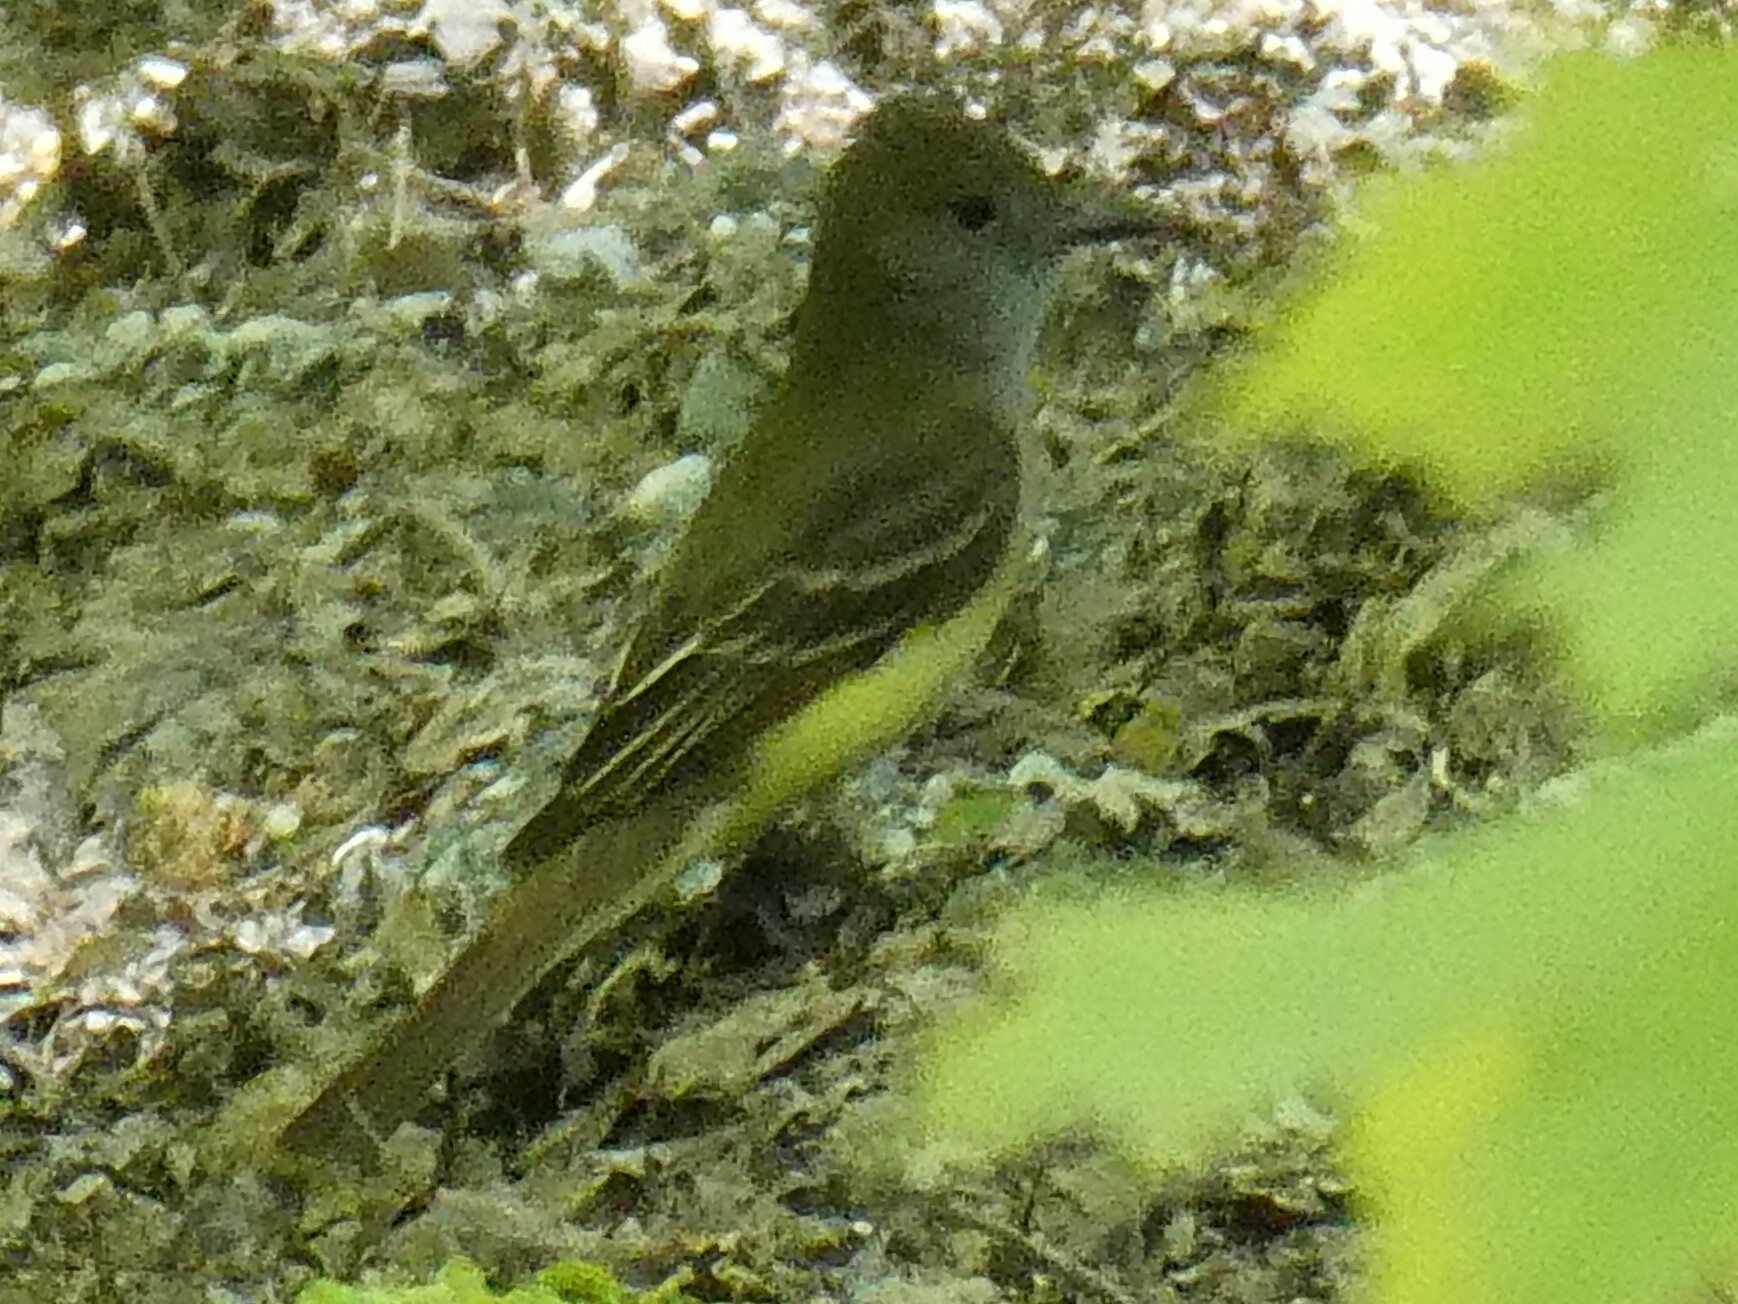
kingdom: Animalia
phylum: Chordata
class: Aves
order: Passeriformes
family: Tyrannidae
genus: Myiarchus
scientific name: Myiarchus crinitus
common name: Great crested flycatcher
